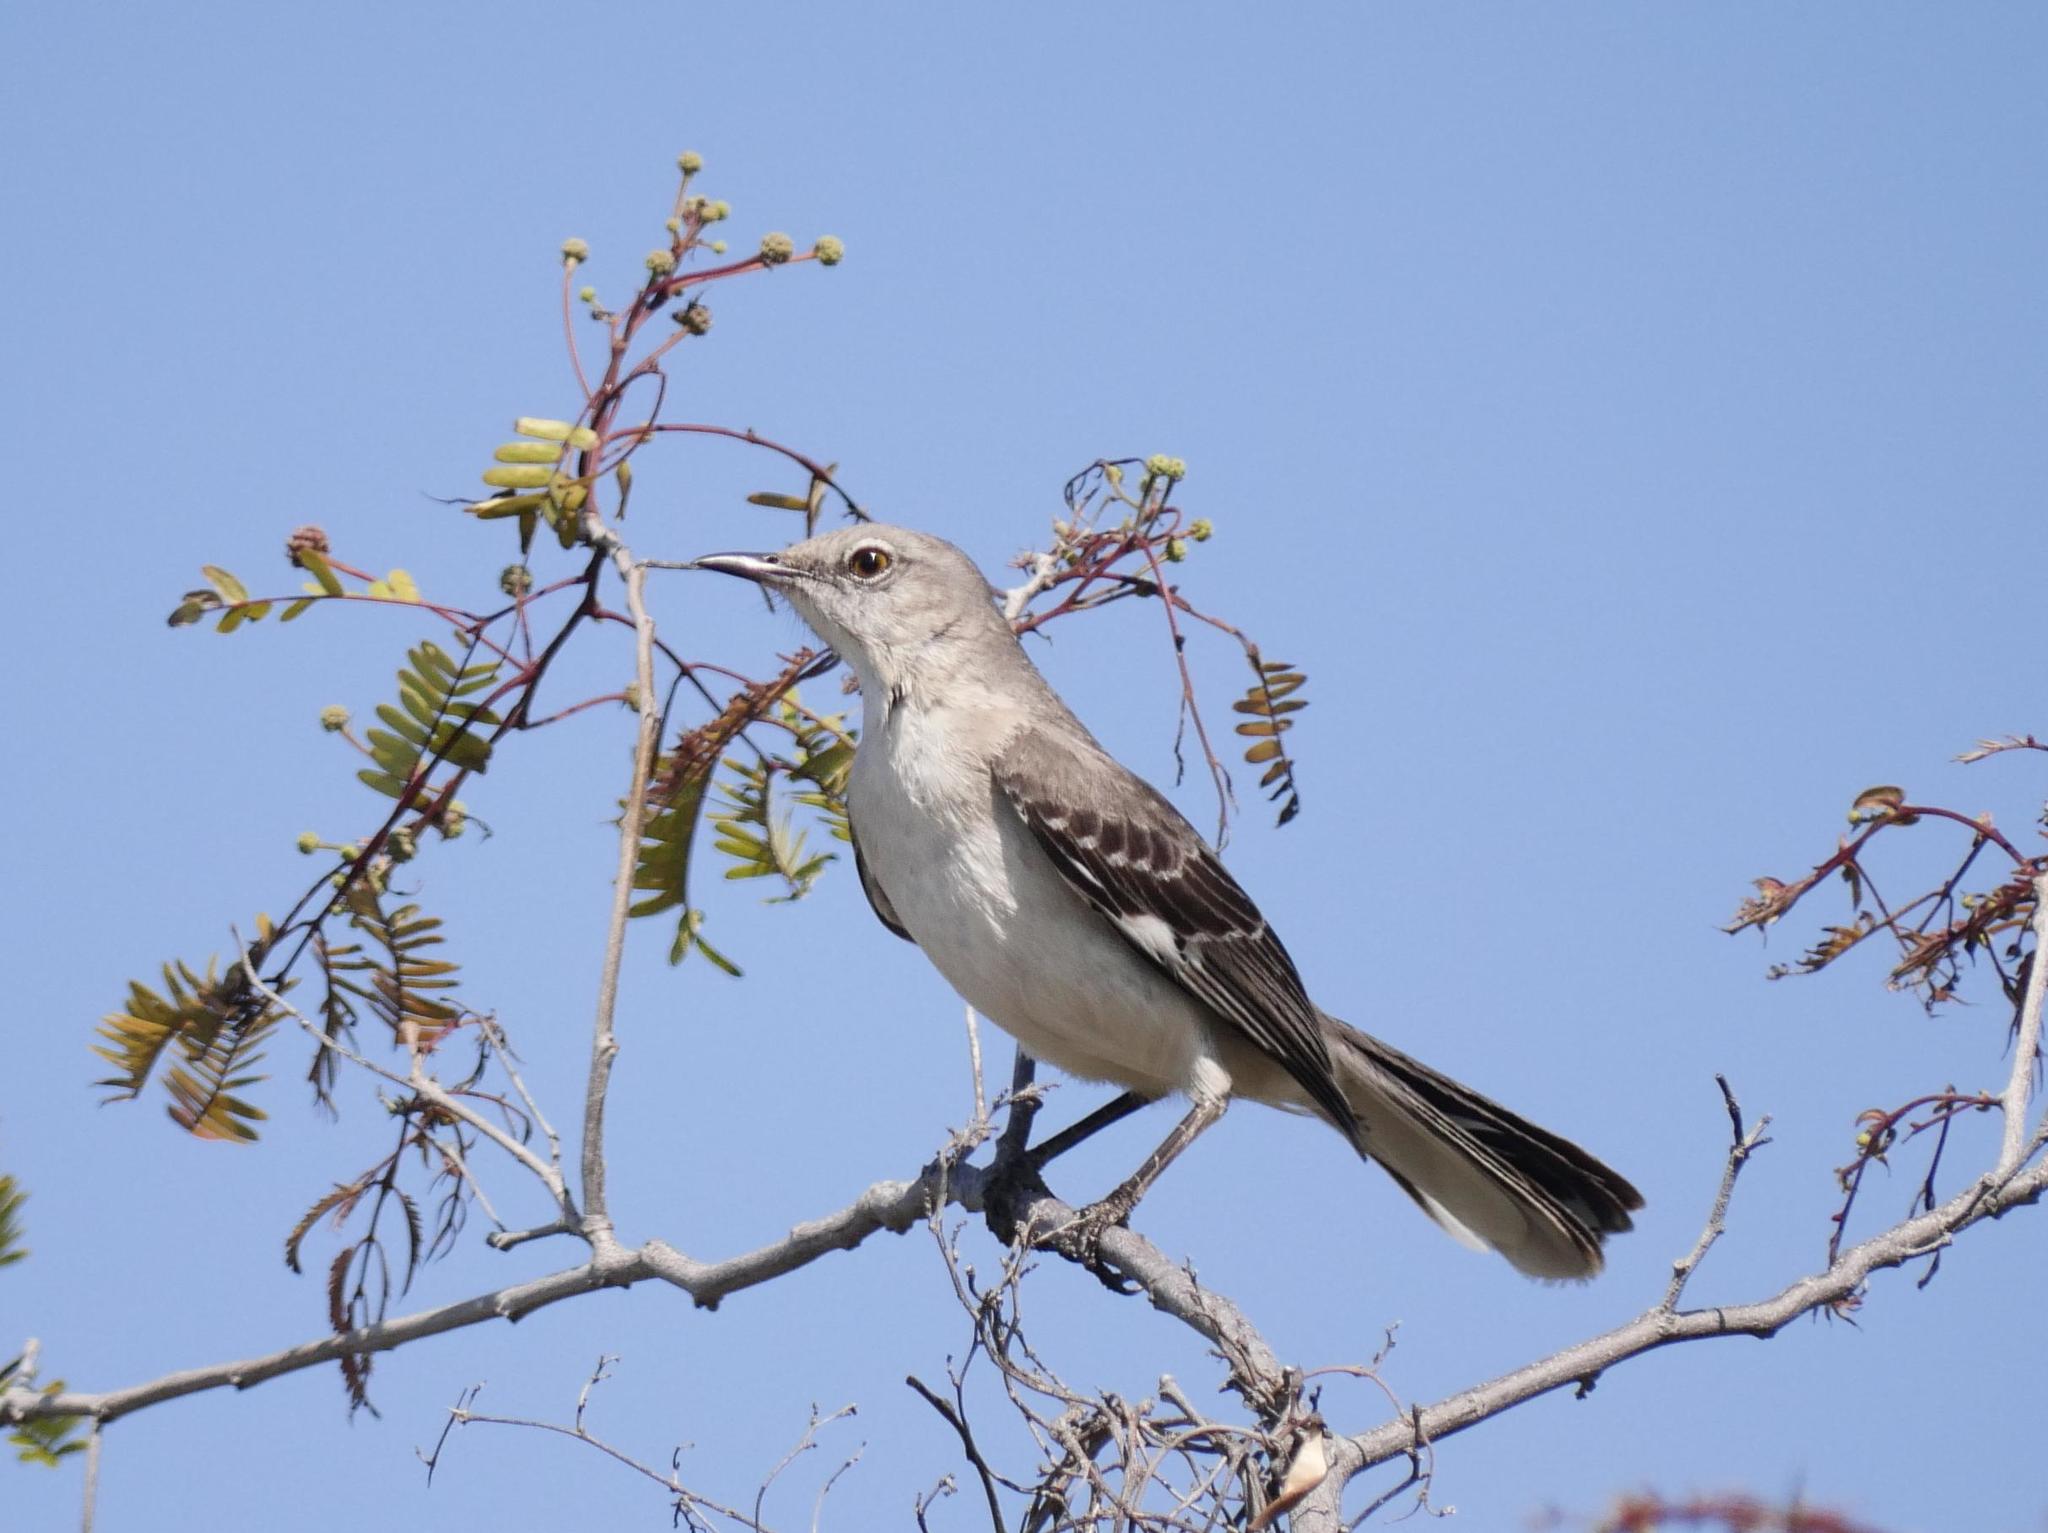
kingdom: Animalia
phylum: Chordata
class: Aves
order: Passeriformes
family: Mimidae
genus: Mimus
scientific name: Mimus polyglottos
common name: Northern mockingbird
